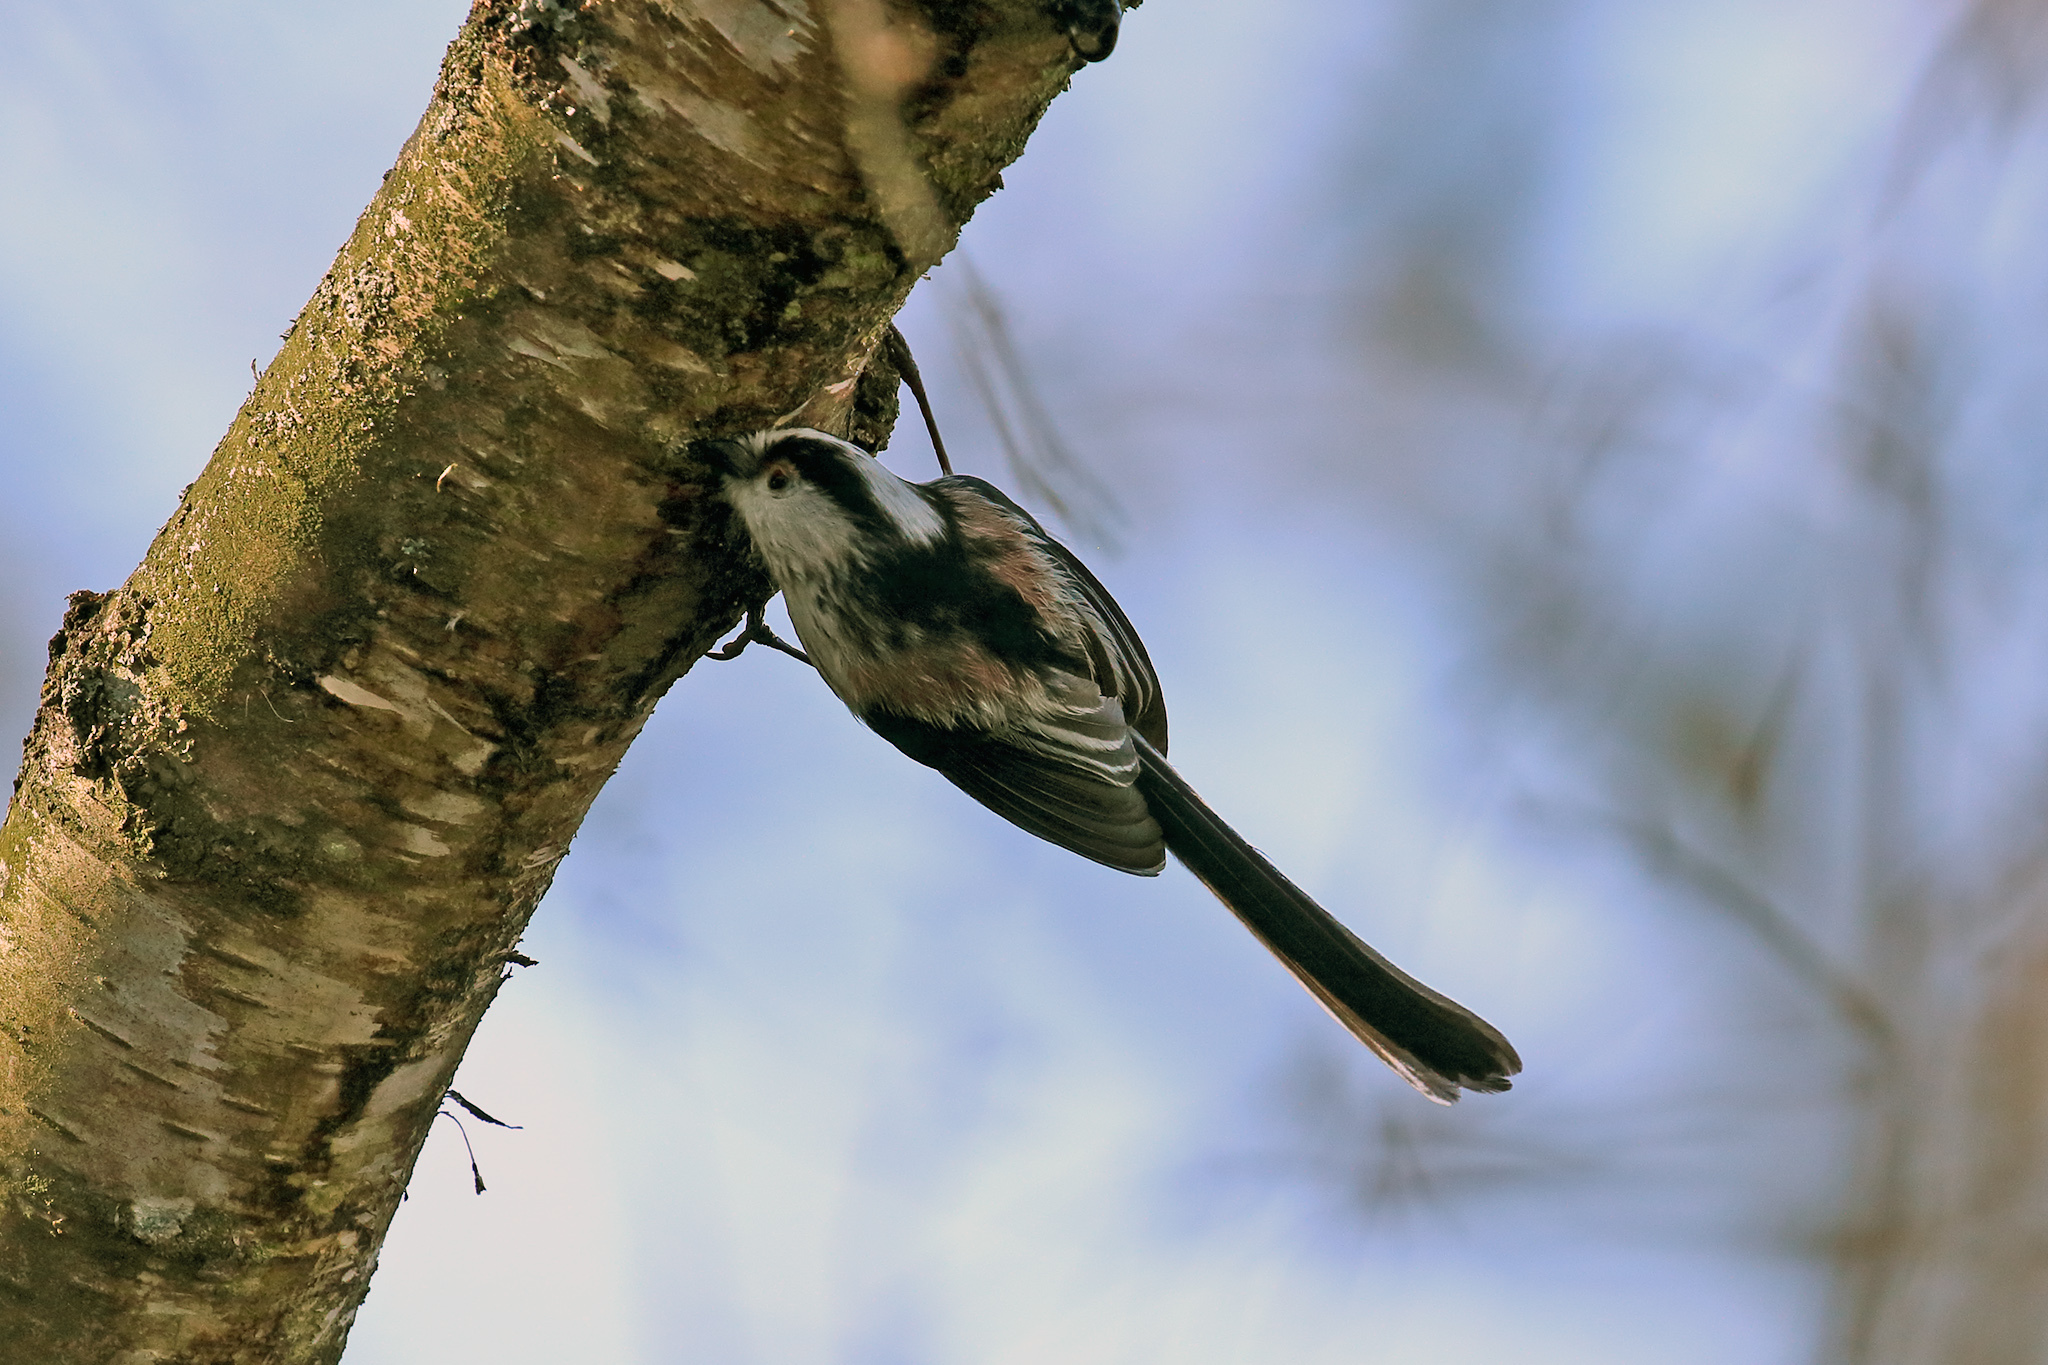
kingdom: Animalia
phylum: Chordata
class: Aves
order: Passeriformes
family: Aegithalidae
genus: Aegithalos
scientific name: Aegithalos caudatus
